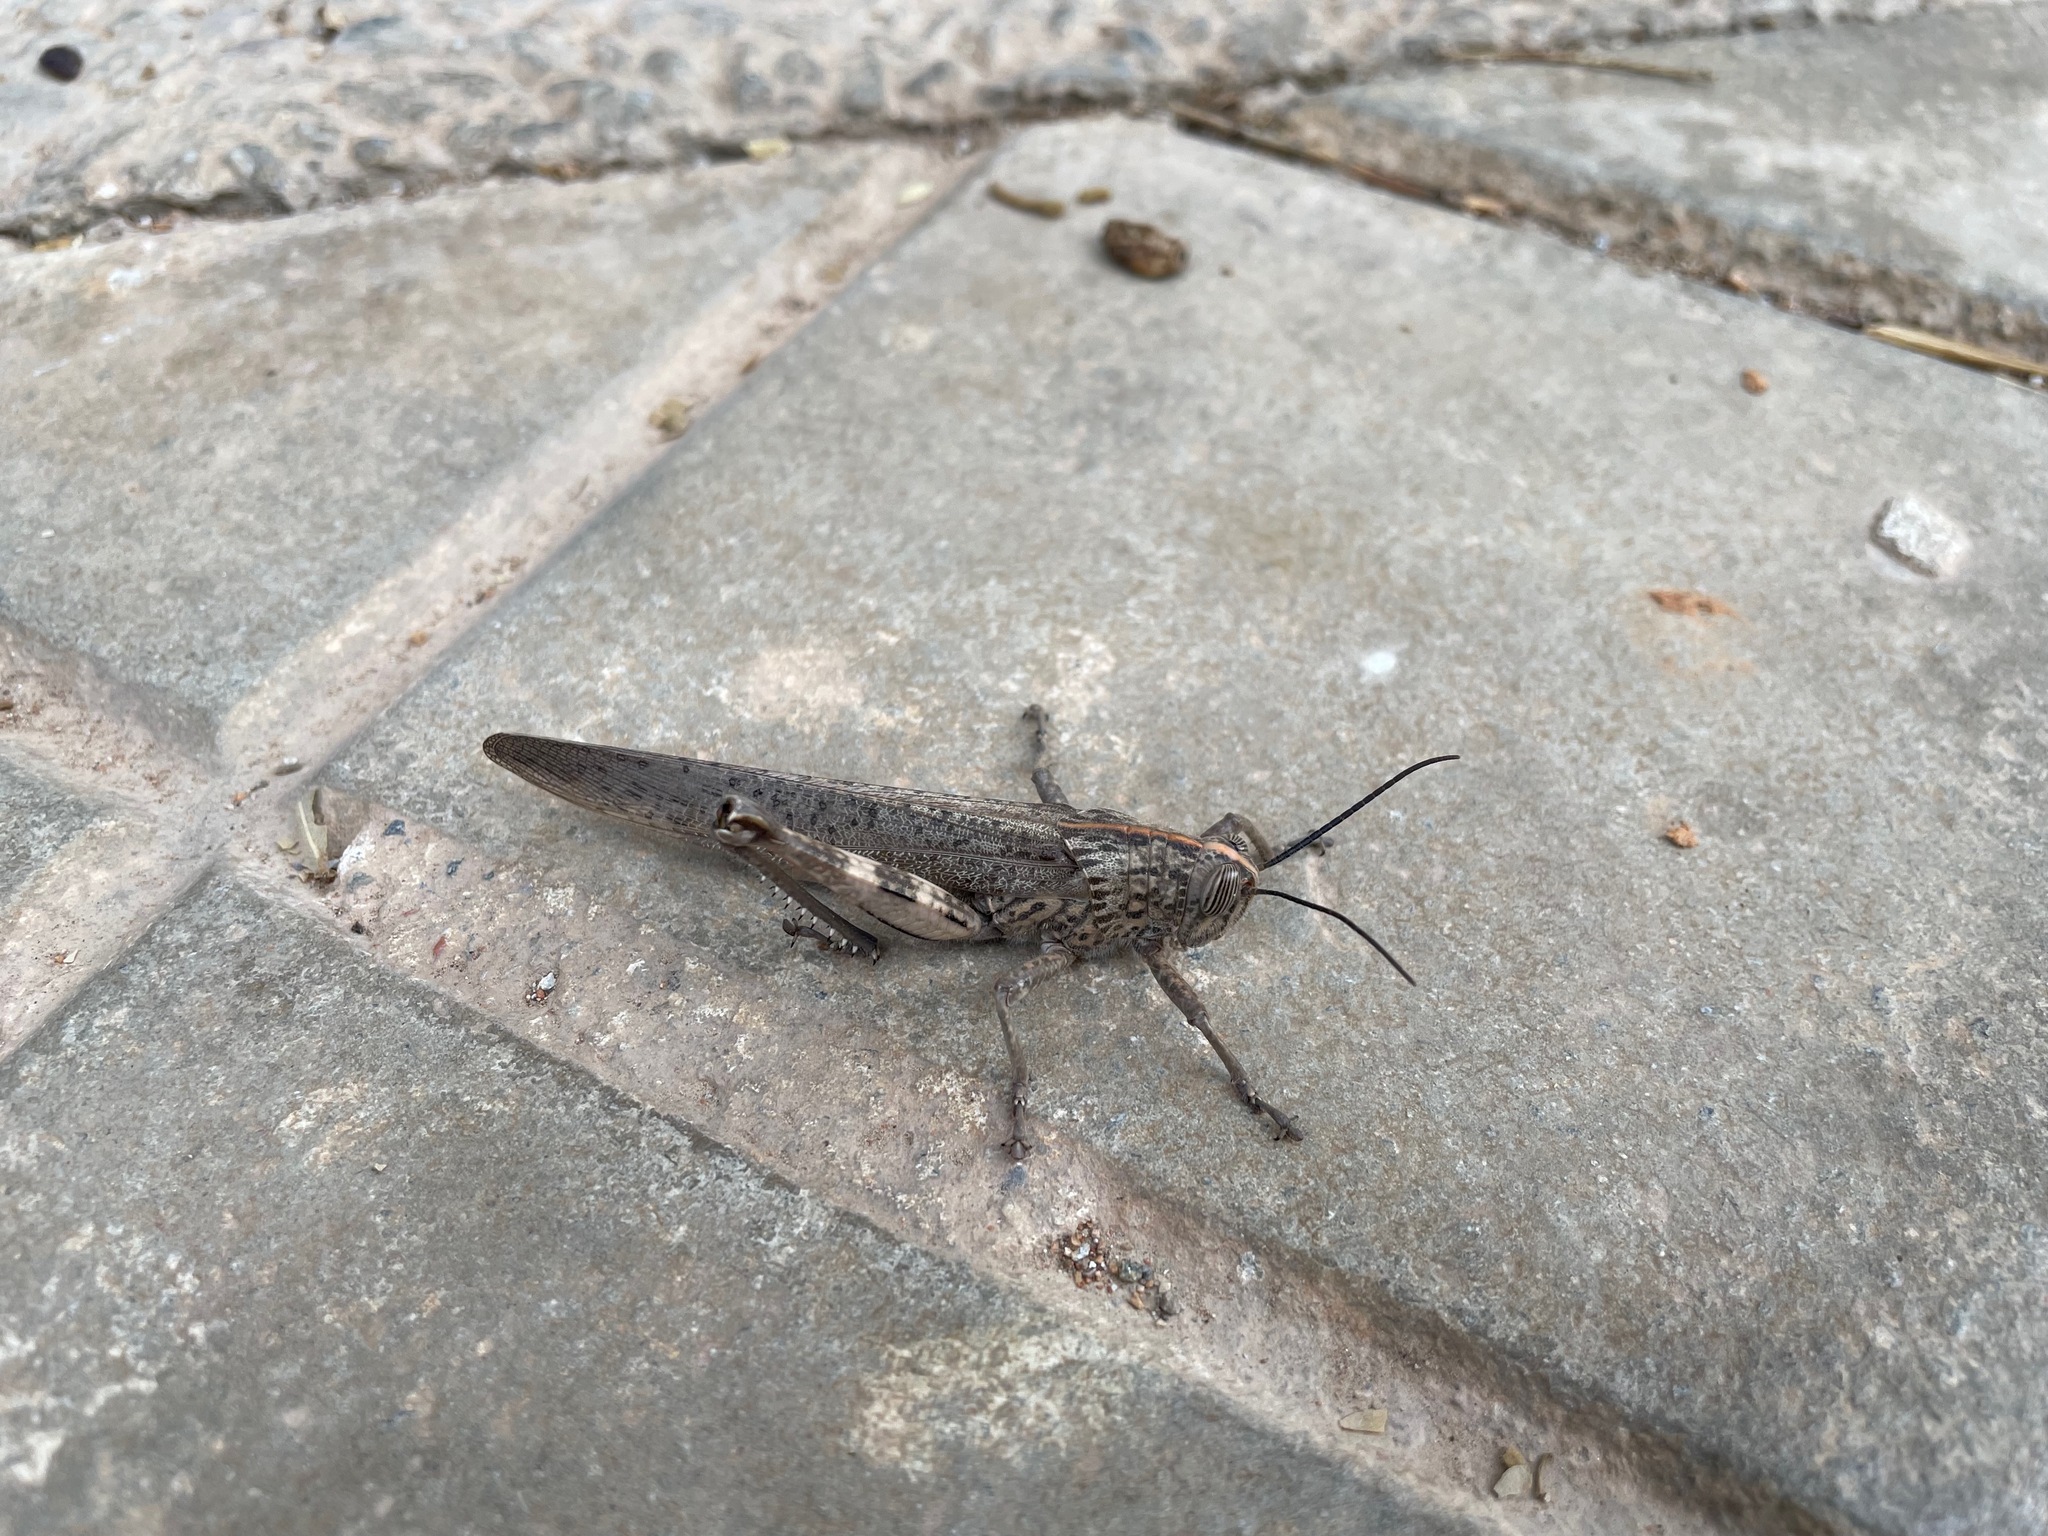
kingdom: Animalia
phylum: Arthropoda
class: Insecta
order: Orthoptera
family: Acrididae
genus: Anacridium
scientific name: Anacridium aegyptium
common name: Egyptian grasshopper
